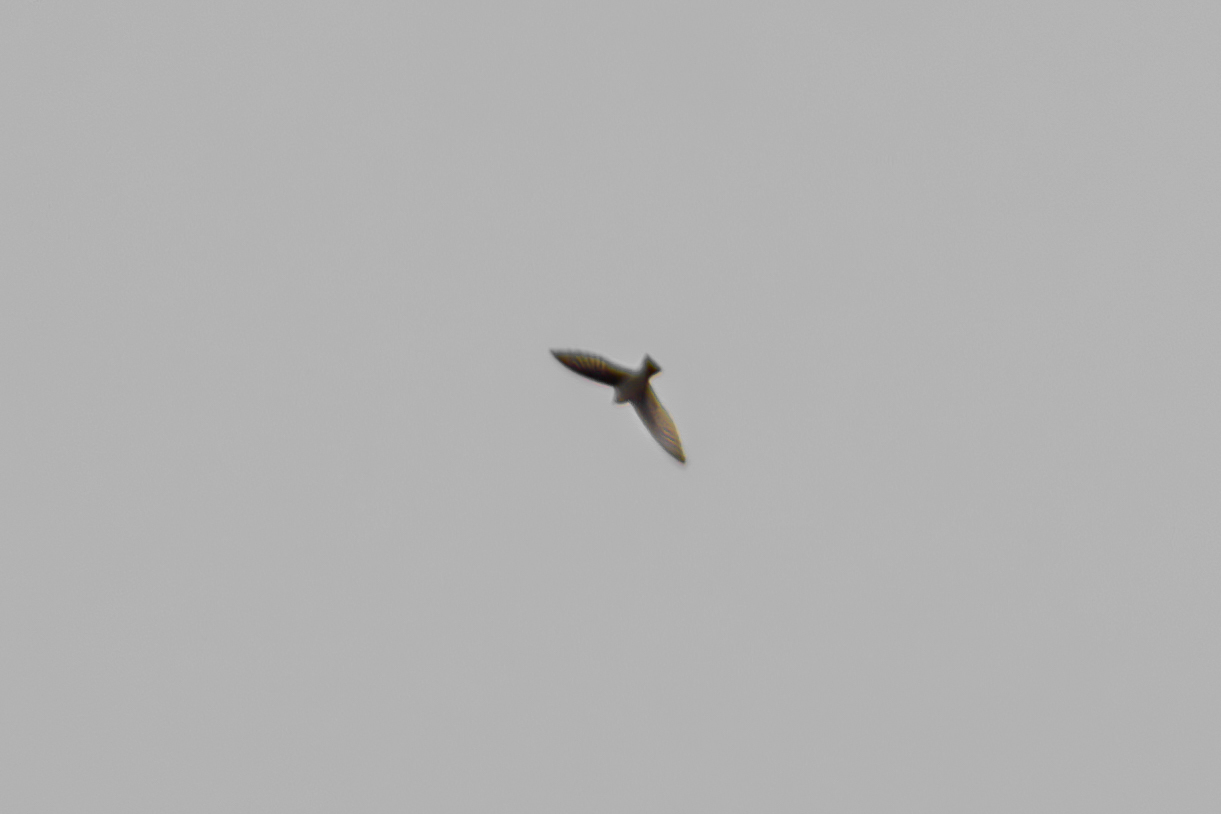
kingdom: Animalia
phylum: Chordata
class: Aves
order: Passeriformes
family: Hirundinidae
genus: Tachycineta
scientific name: Tachycineta bicolor
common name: Tree swallow
